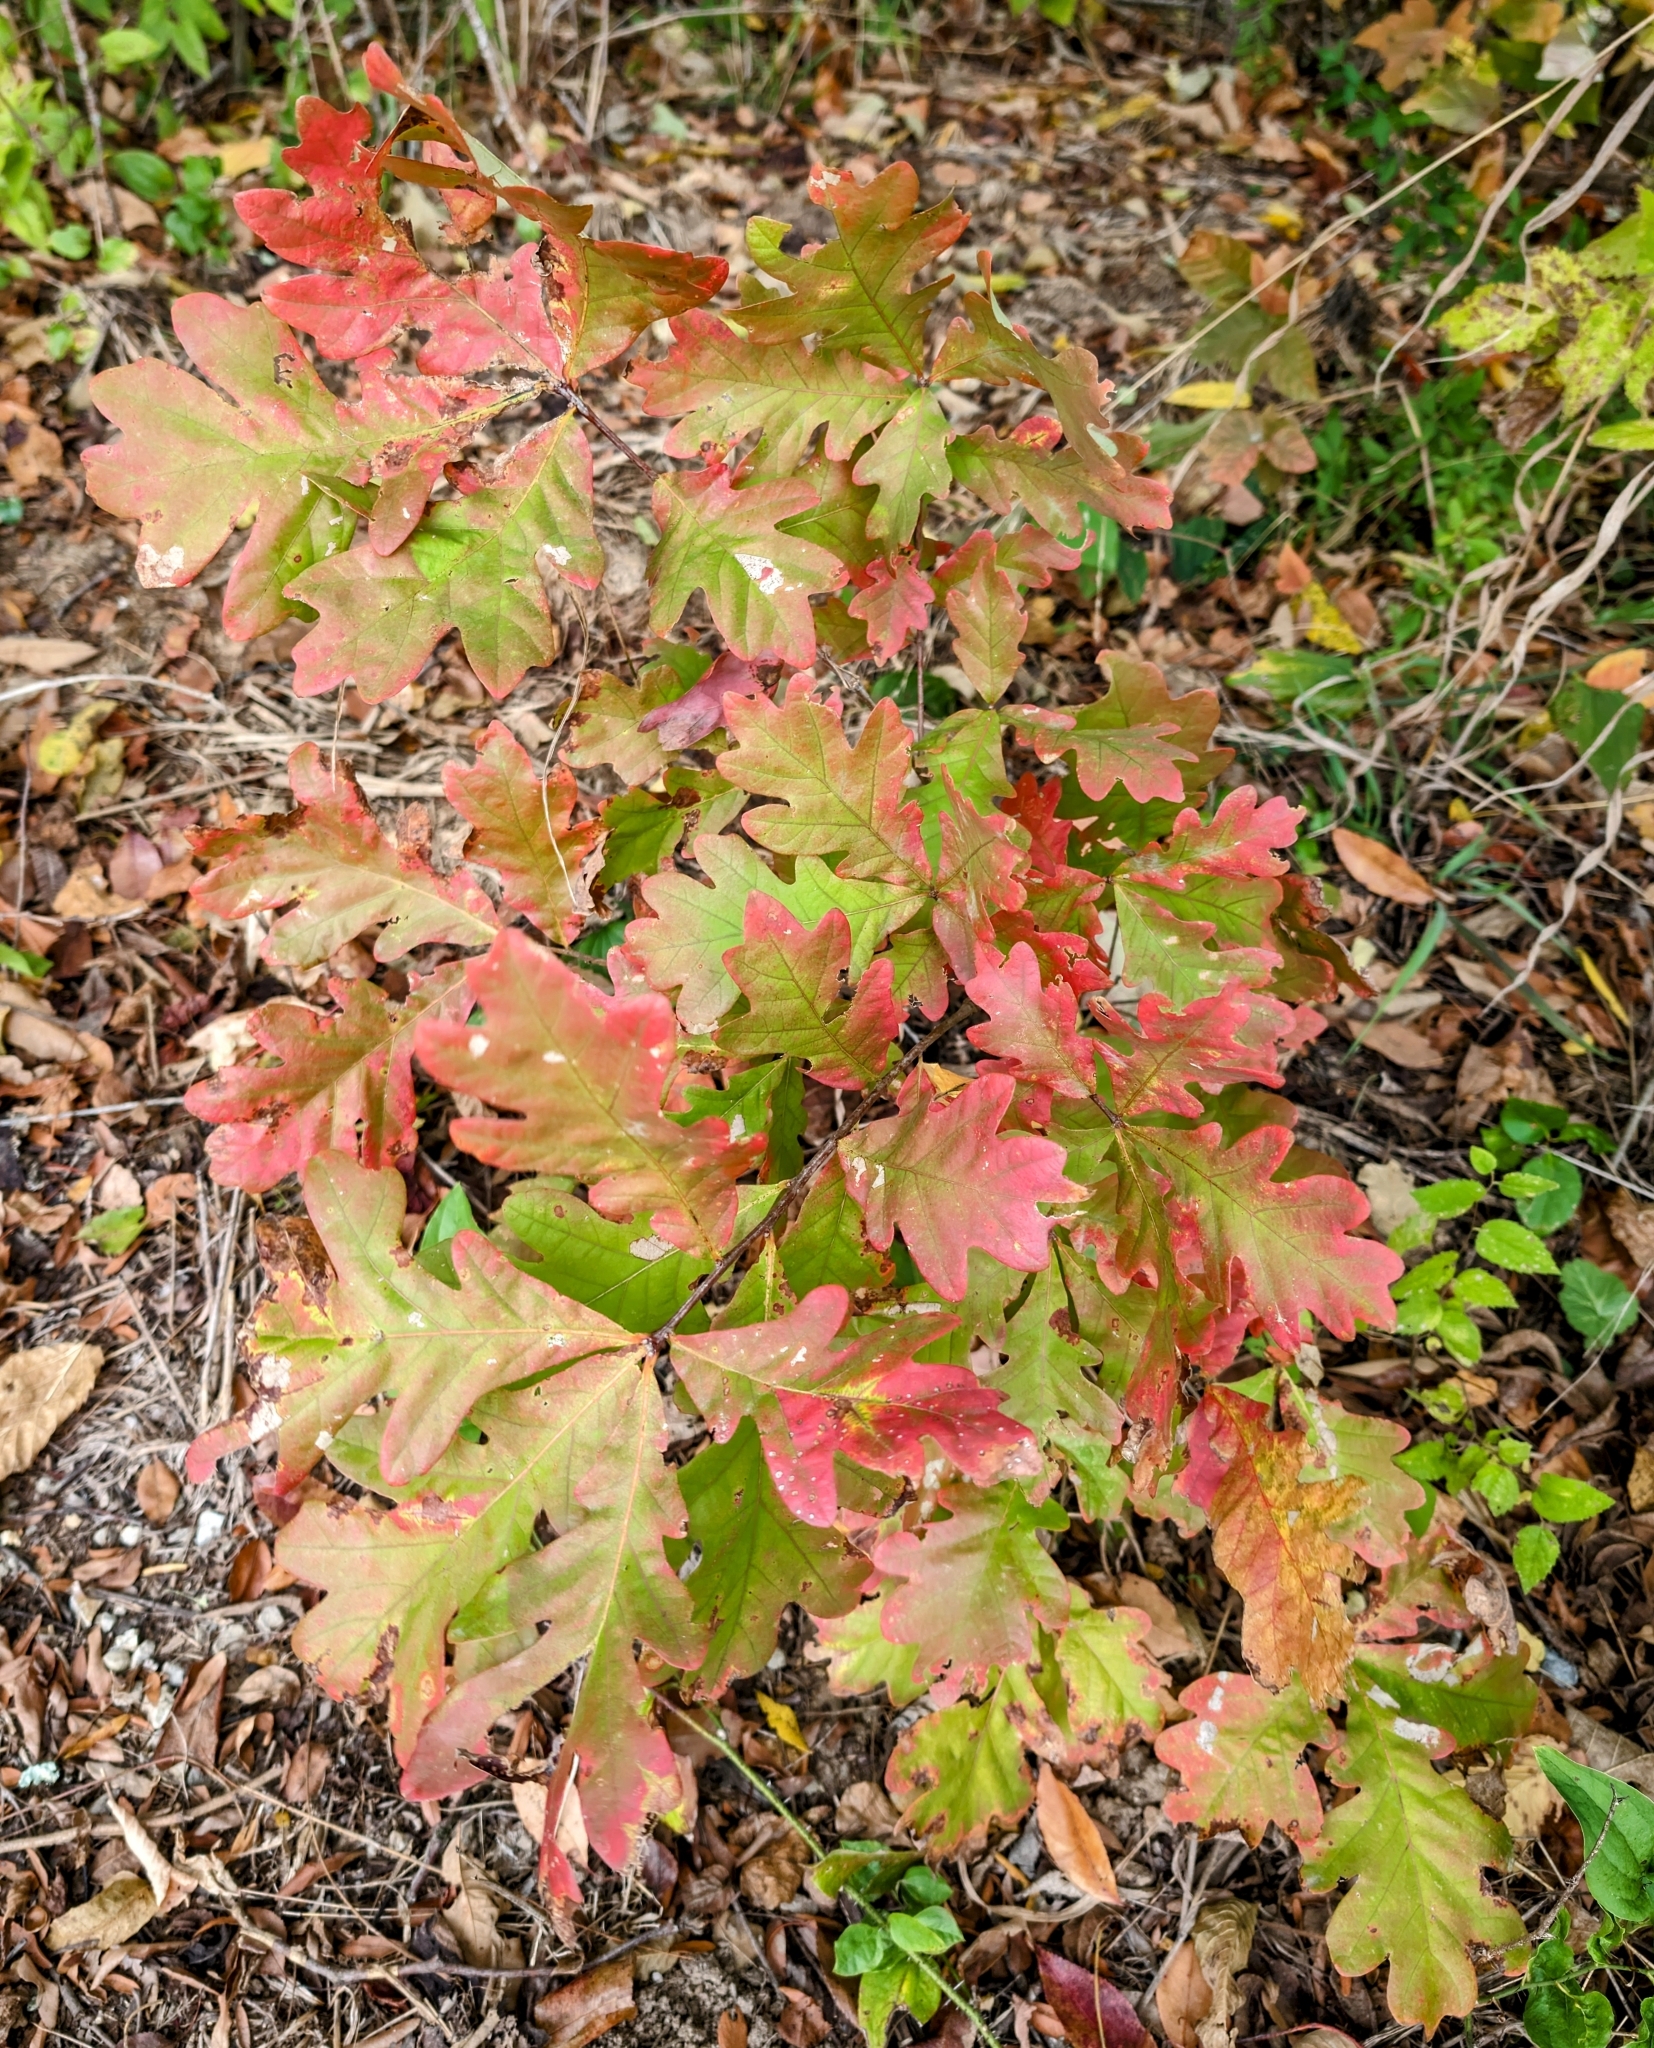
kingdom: Plantae
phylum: Tracheophyta
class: Magnoliopsida
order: Fagales
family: Fagaceae
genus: Quercus
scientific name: Quercus alba
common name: White oak
